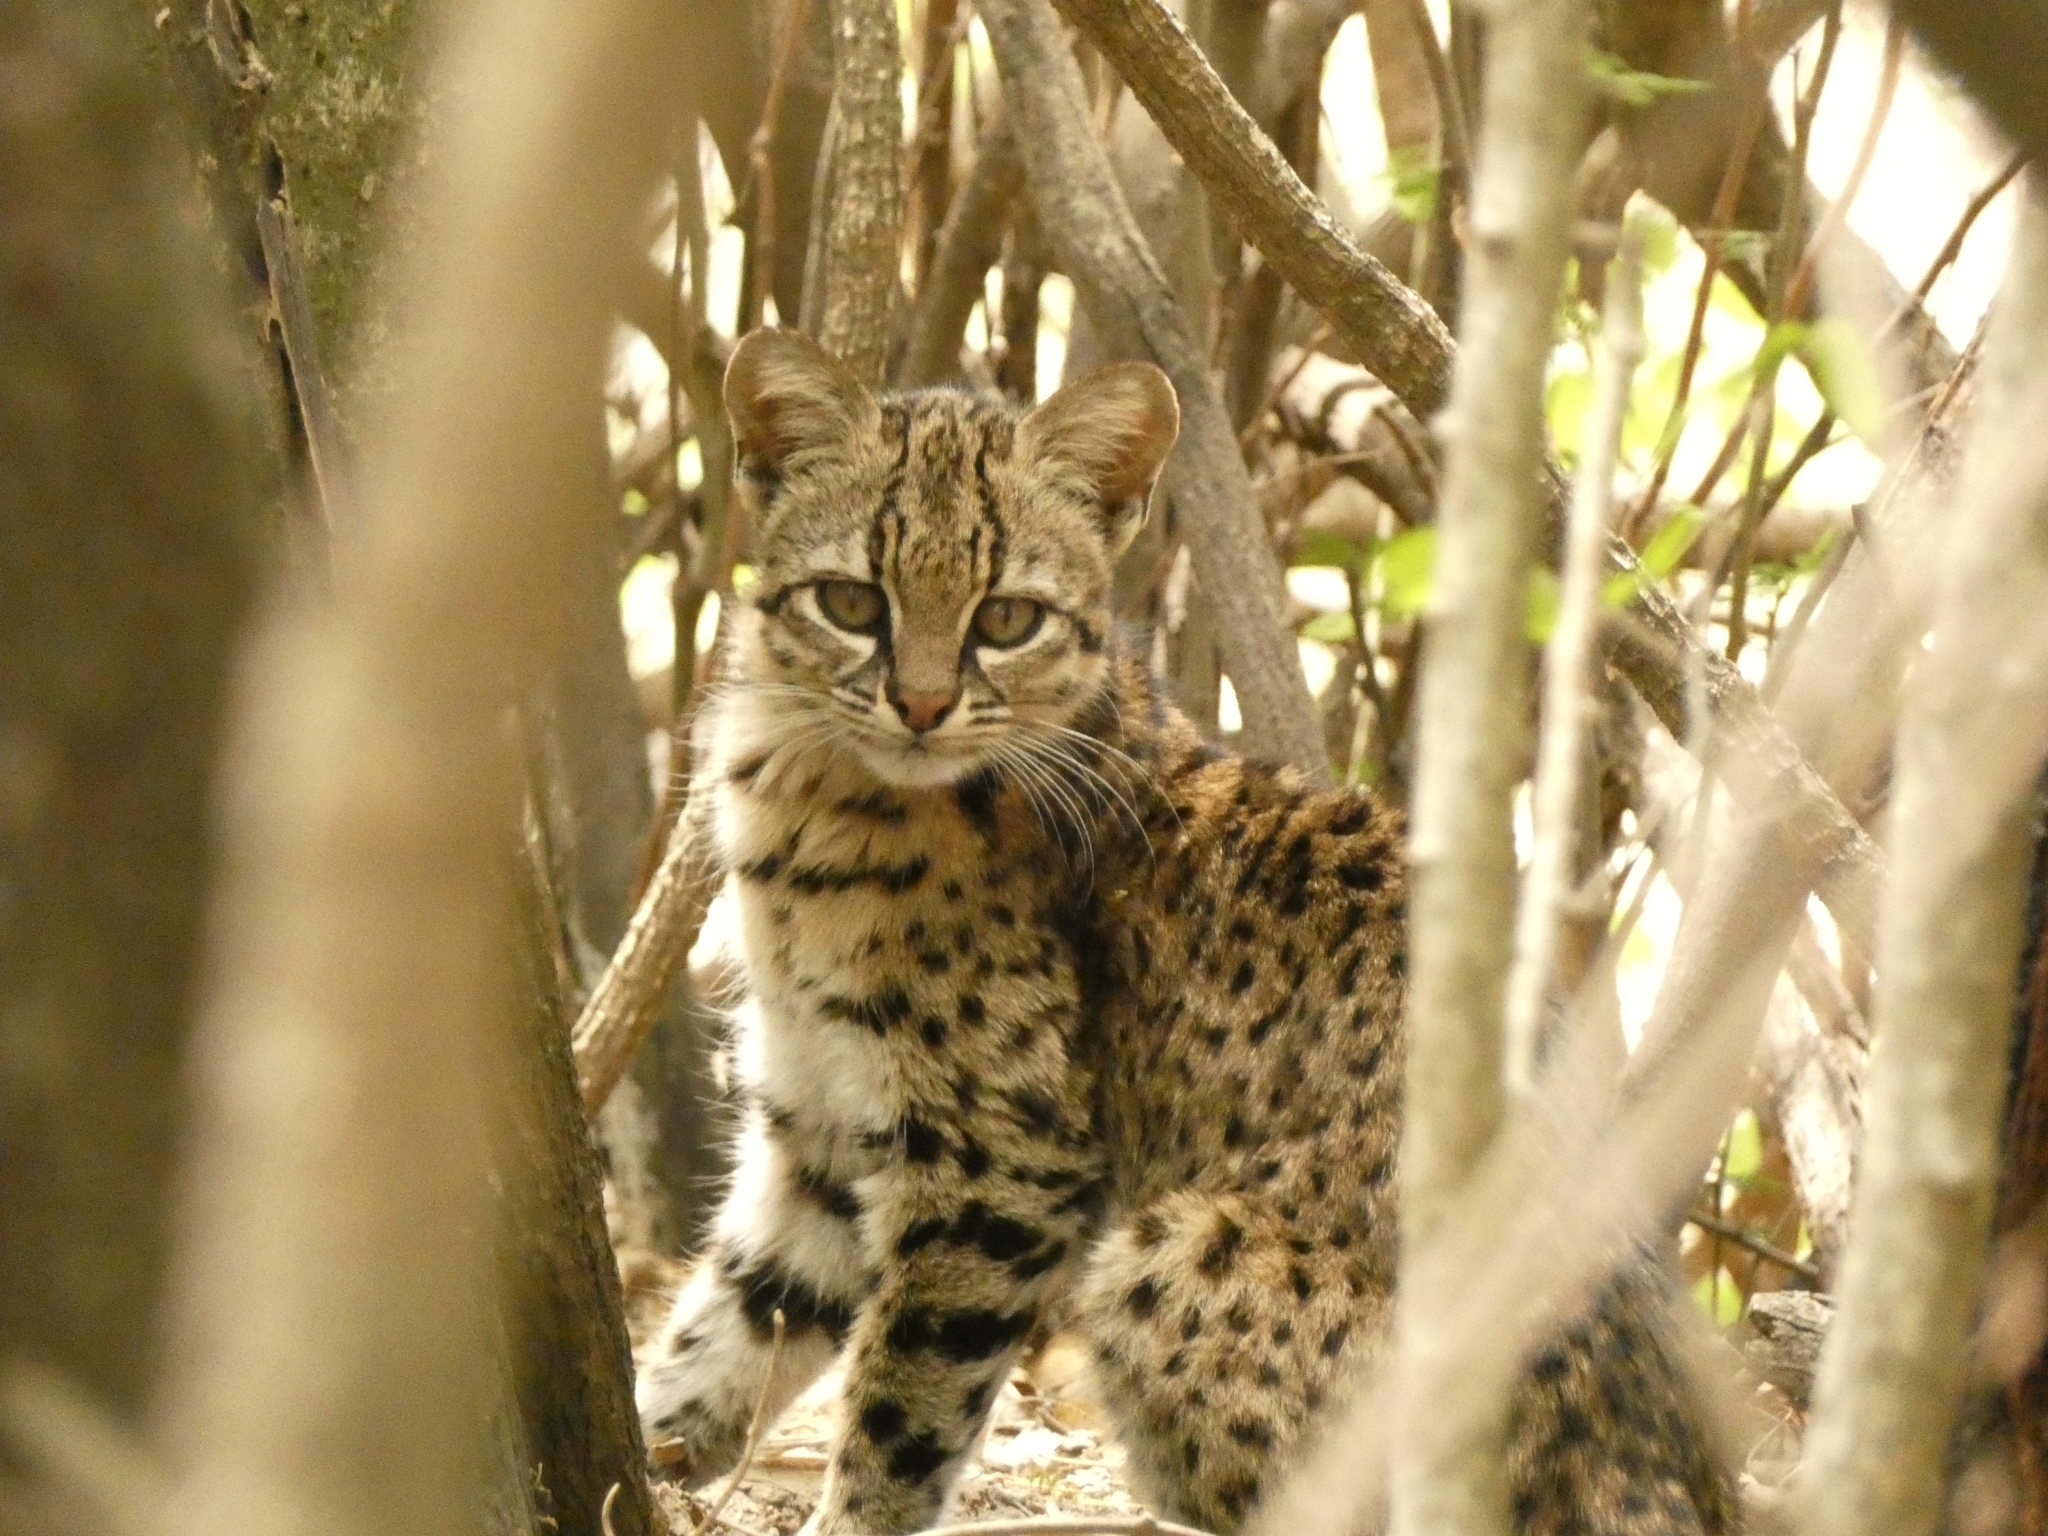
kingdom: Animalia
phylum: Chordata
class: Mammalia
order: Carnivora
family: Felidae
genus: Leopardus
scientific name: Leopardus geoffroyi
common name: Geoffroy's cat
